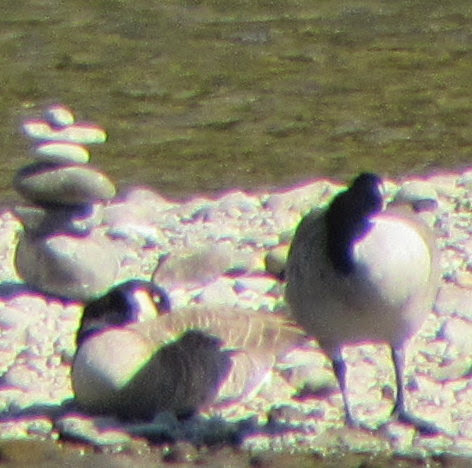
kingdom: Animalia
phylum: Chordata
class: Aves
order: Anseriformes
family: Anatidae
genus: Branta
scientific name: Branta canadensis
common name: Canada goose
